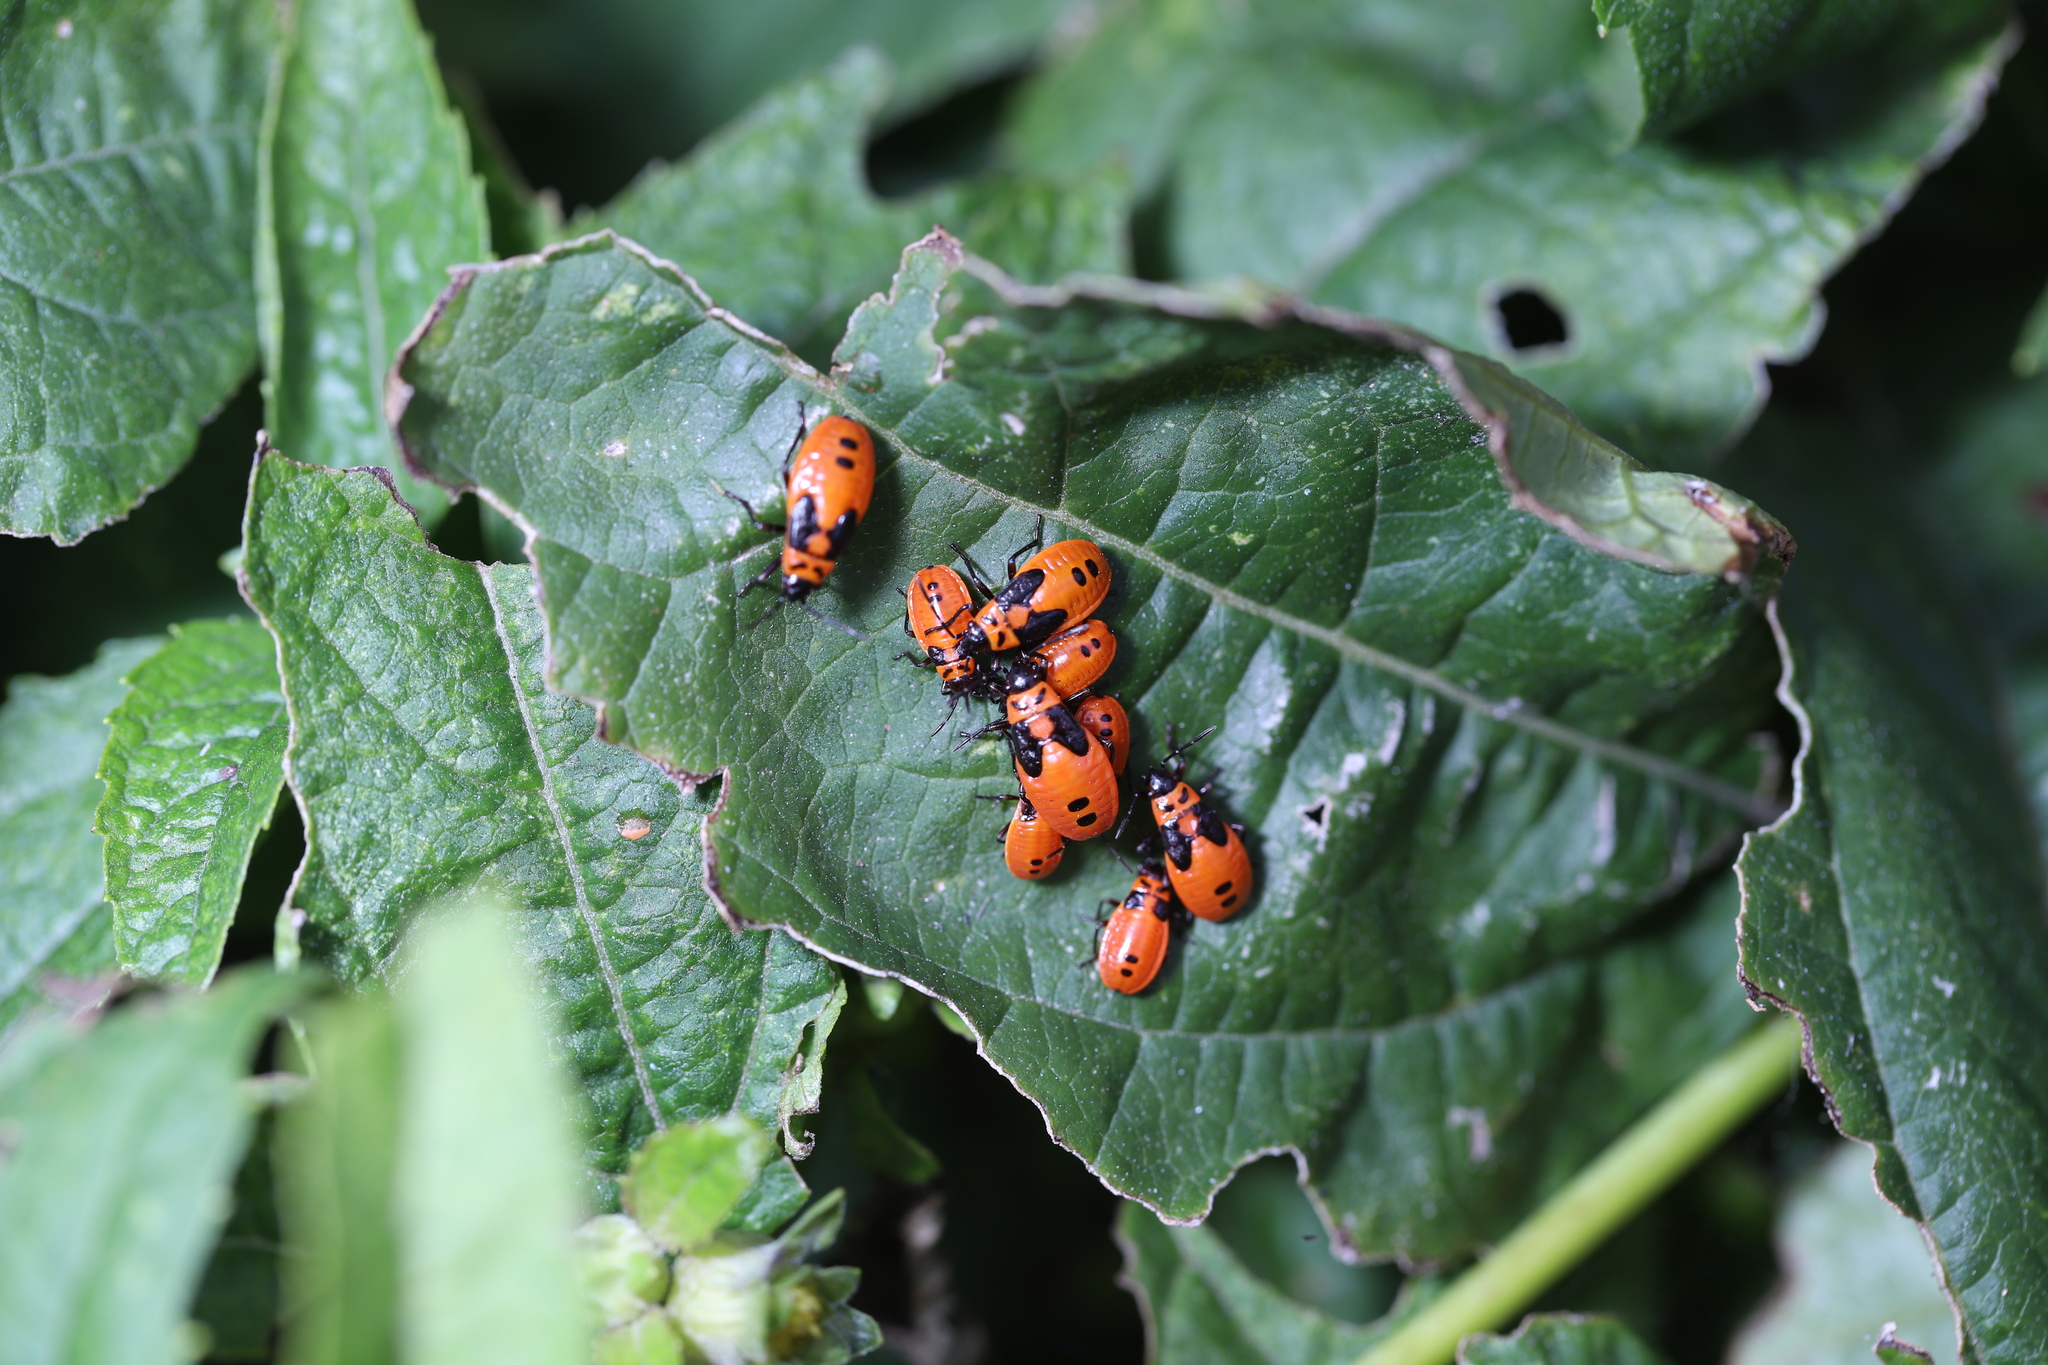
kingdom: Animalia
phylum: Arthropoda
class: Insecta
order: Hemiptera
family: Lygaeidae
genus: Lygaeus
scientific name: Lygaeus turcicus
